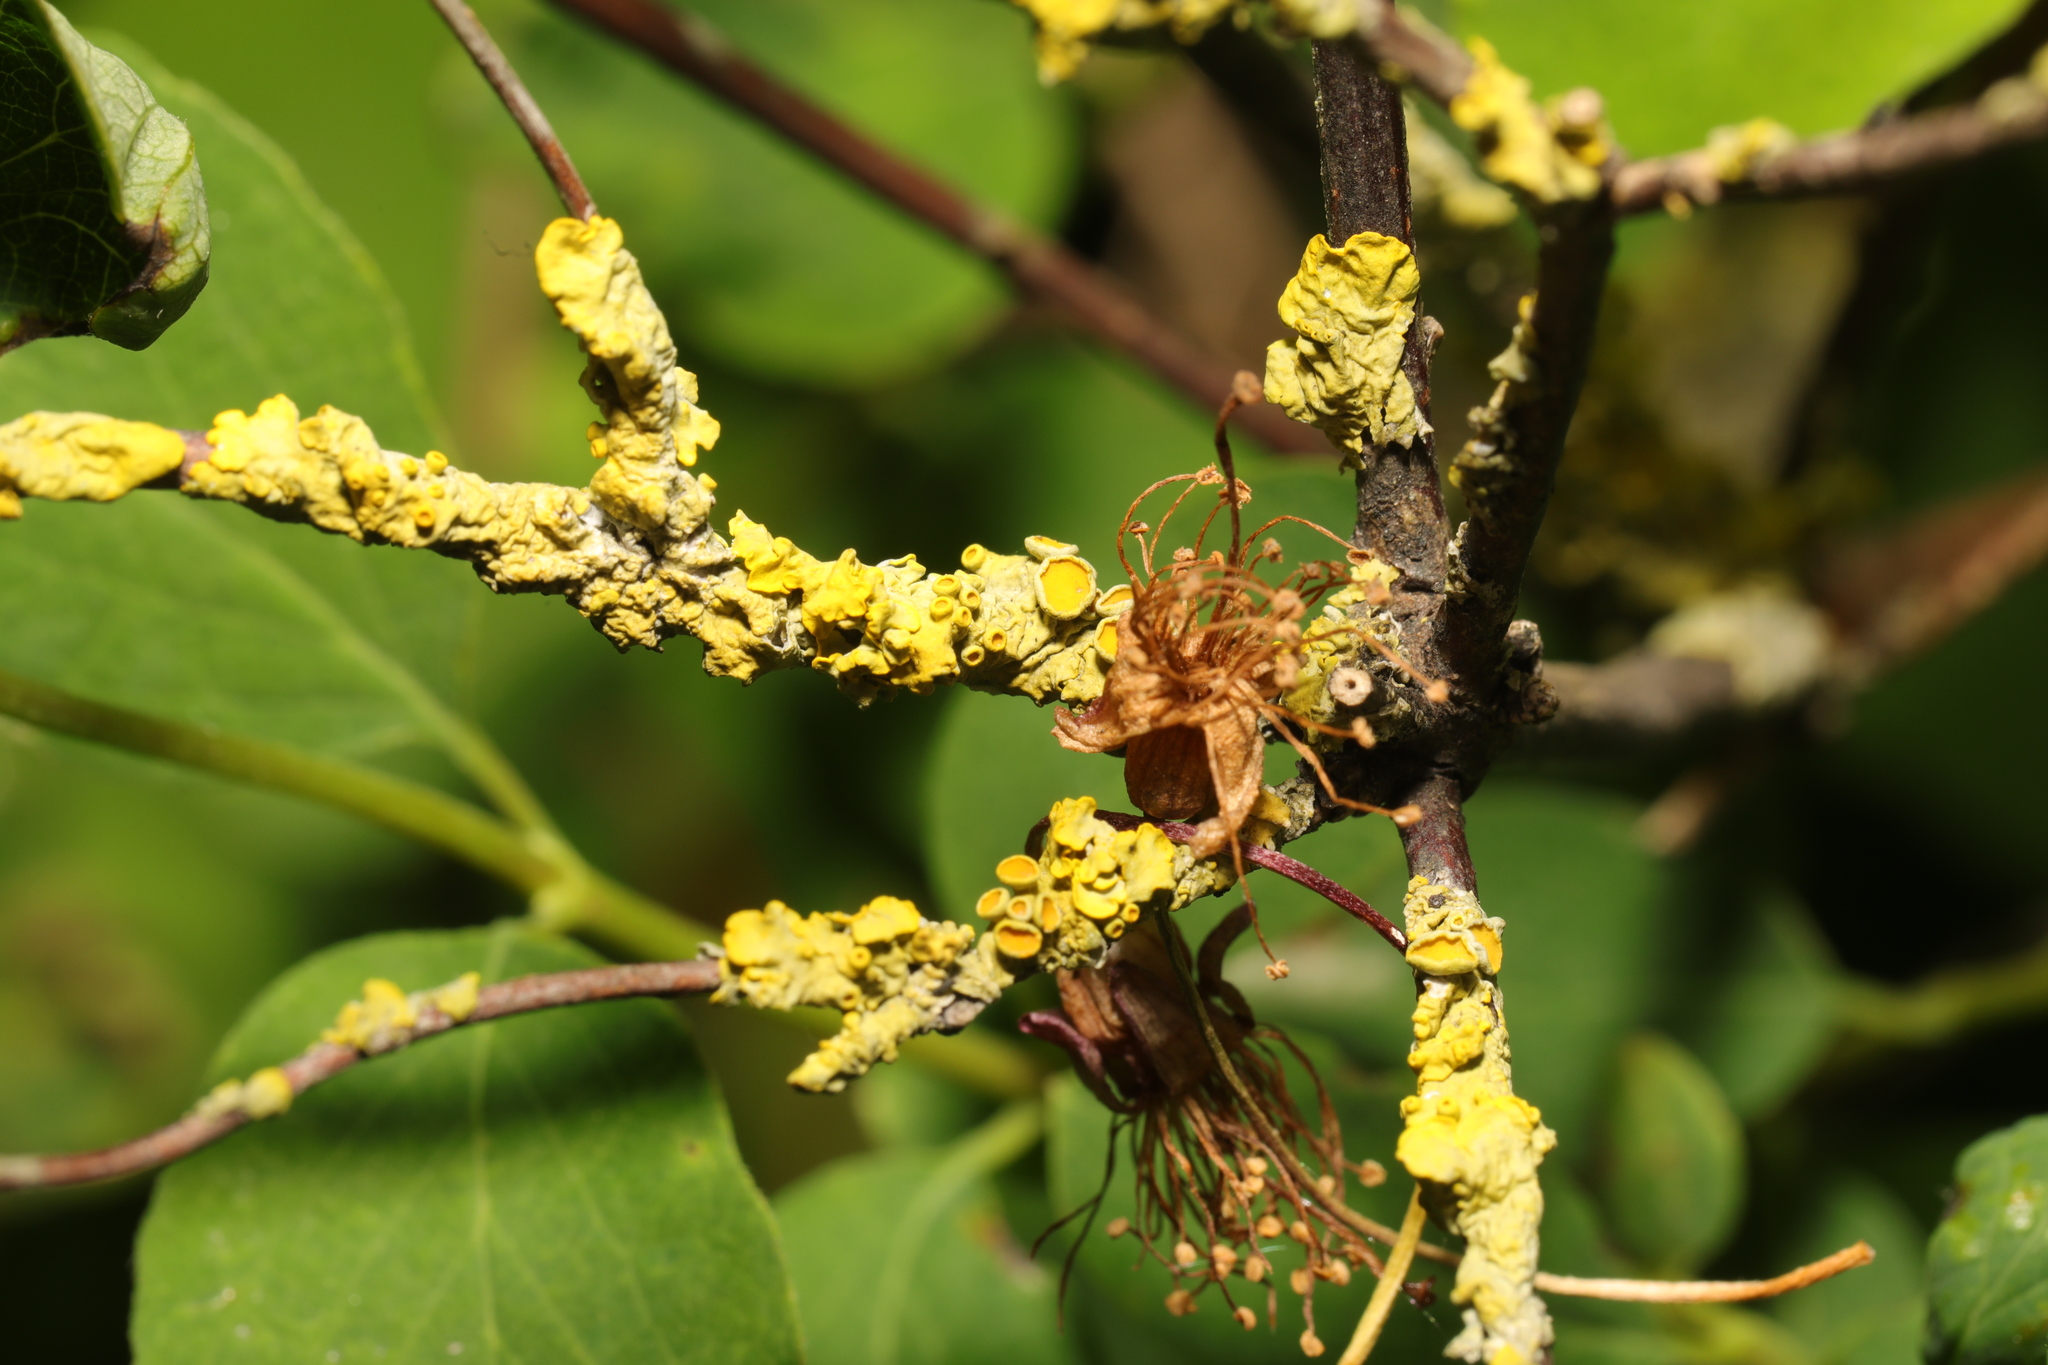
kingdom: Fungi
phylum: Ascomycota
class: Lecanoromycetes
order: Teloschistales
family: Teloschistaceae
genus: Xanthoria
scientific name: Xanthoria parietina
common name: Common orange lichen
